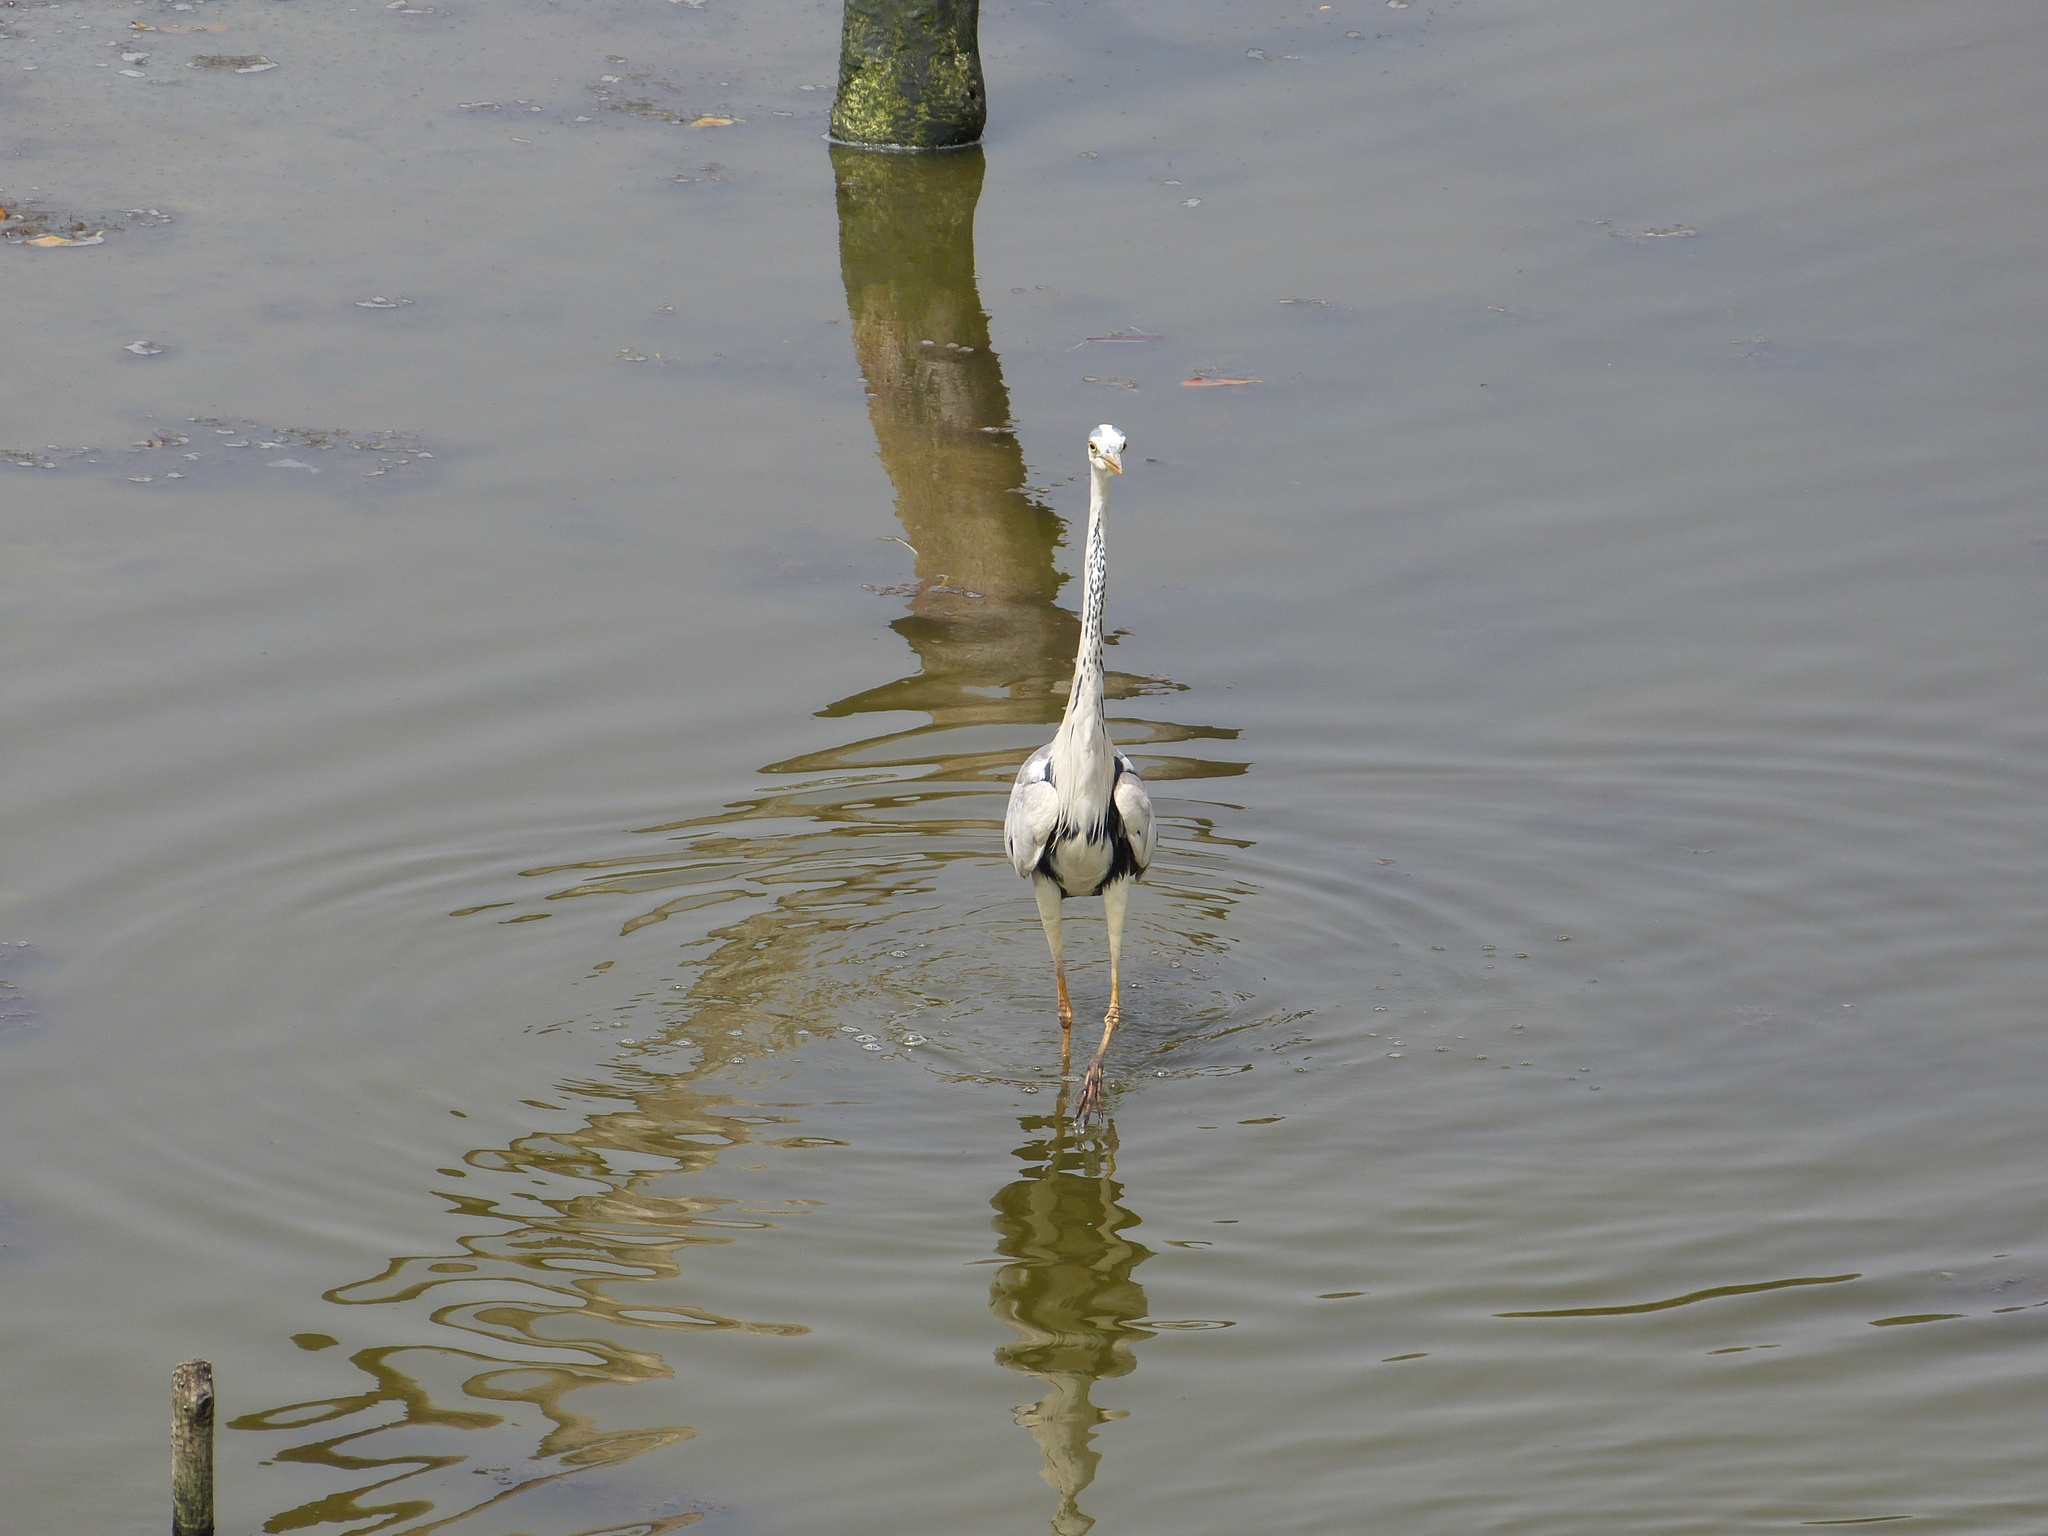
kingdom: Animalia
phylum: Chordata
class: Aves
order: Pelecaniformes
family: Ardeidae
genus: Ardea
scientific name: Ardea cinerea
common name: Grey heron
